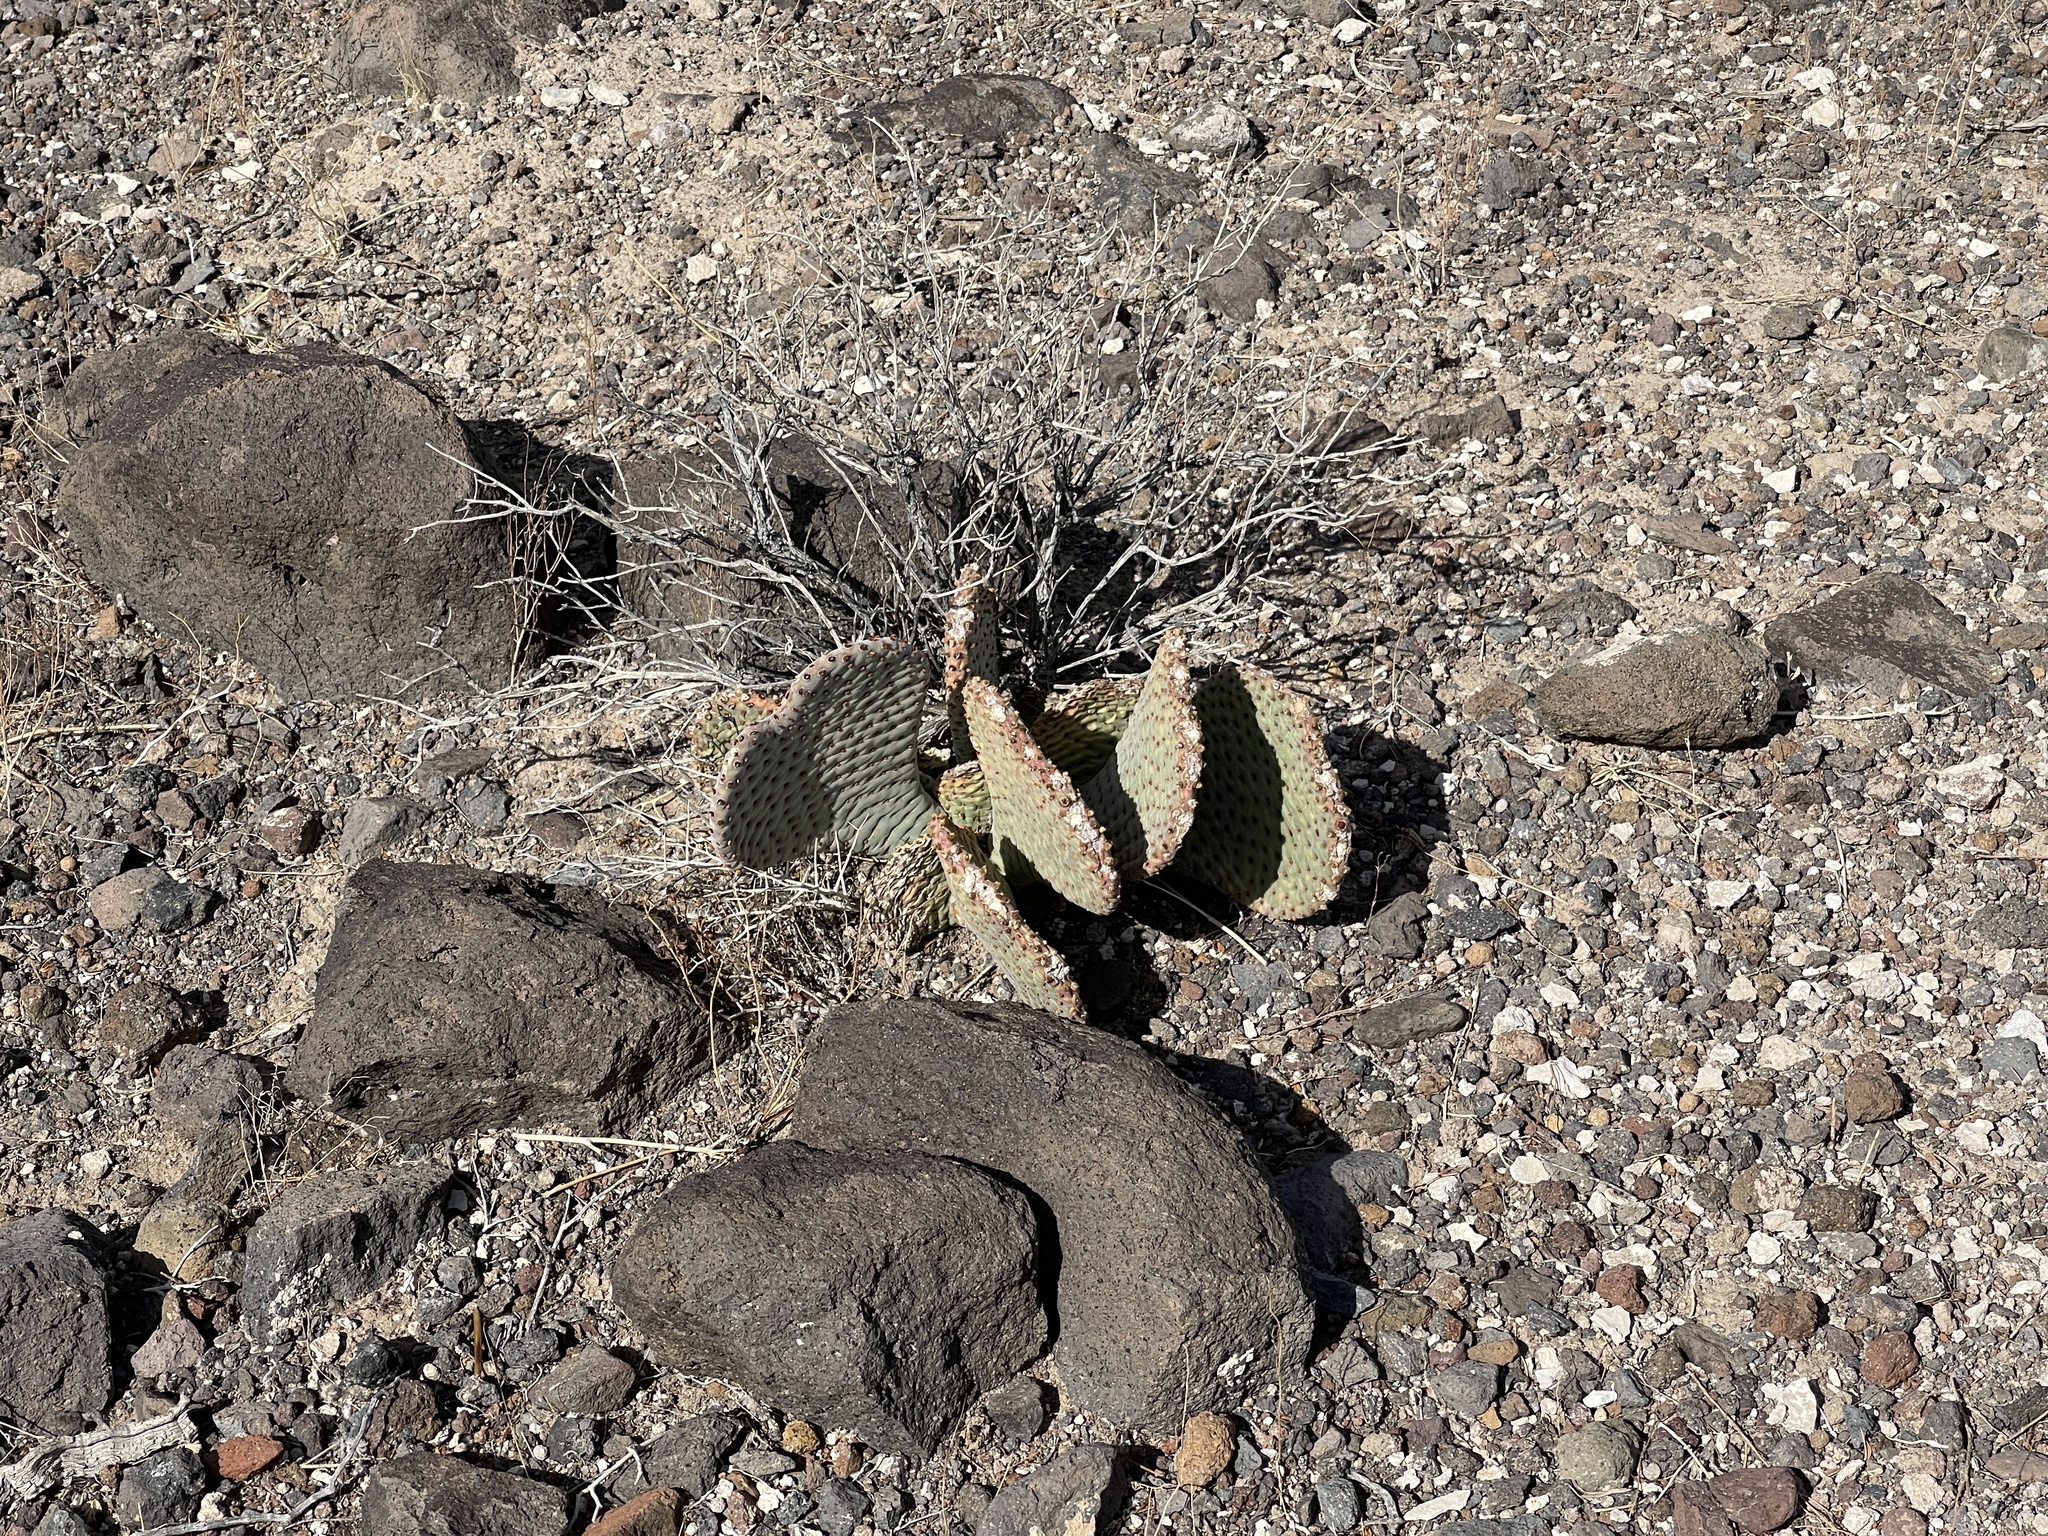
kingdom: Plantae
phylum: Tracheophyta
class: Magnoliopsida
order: Caryophyllales
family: Cactaceae
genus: Opuntia
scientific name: Opuntia basilaris
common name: Beavertail prickly-pear
